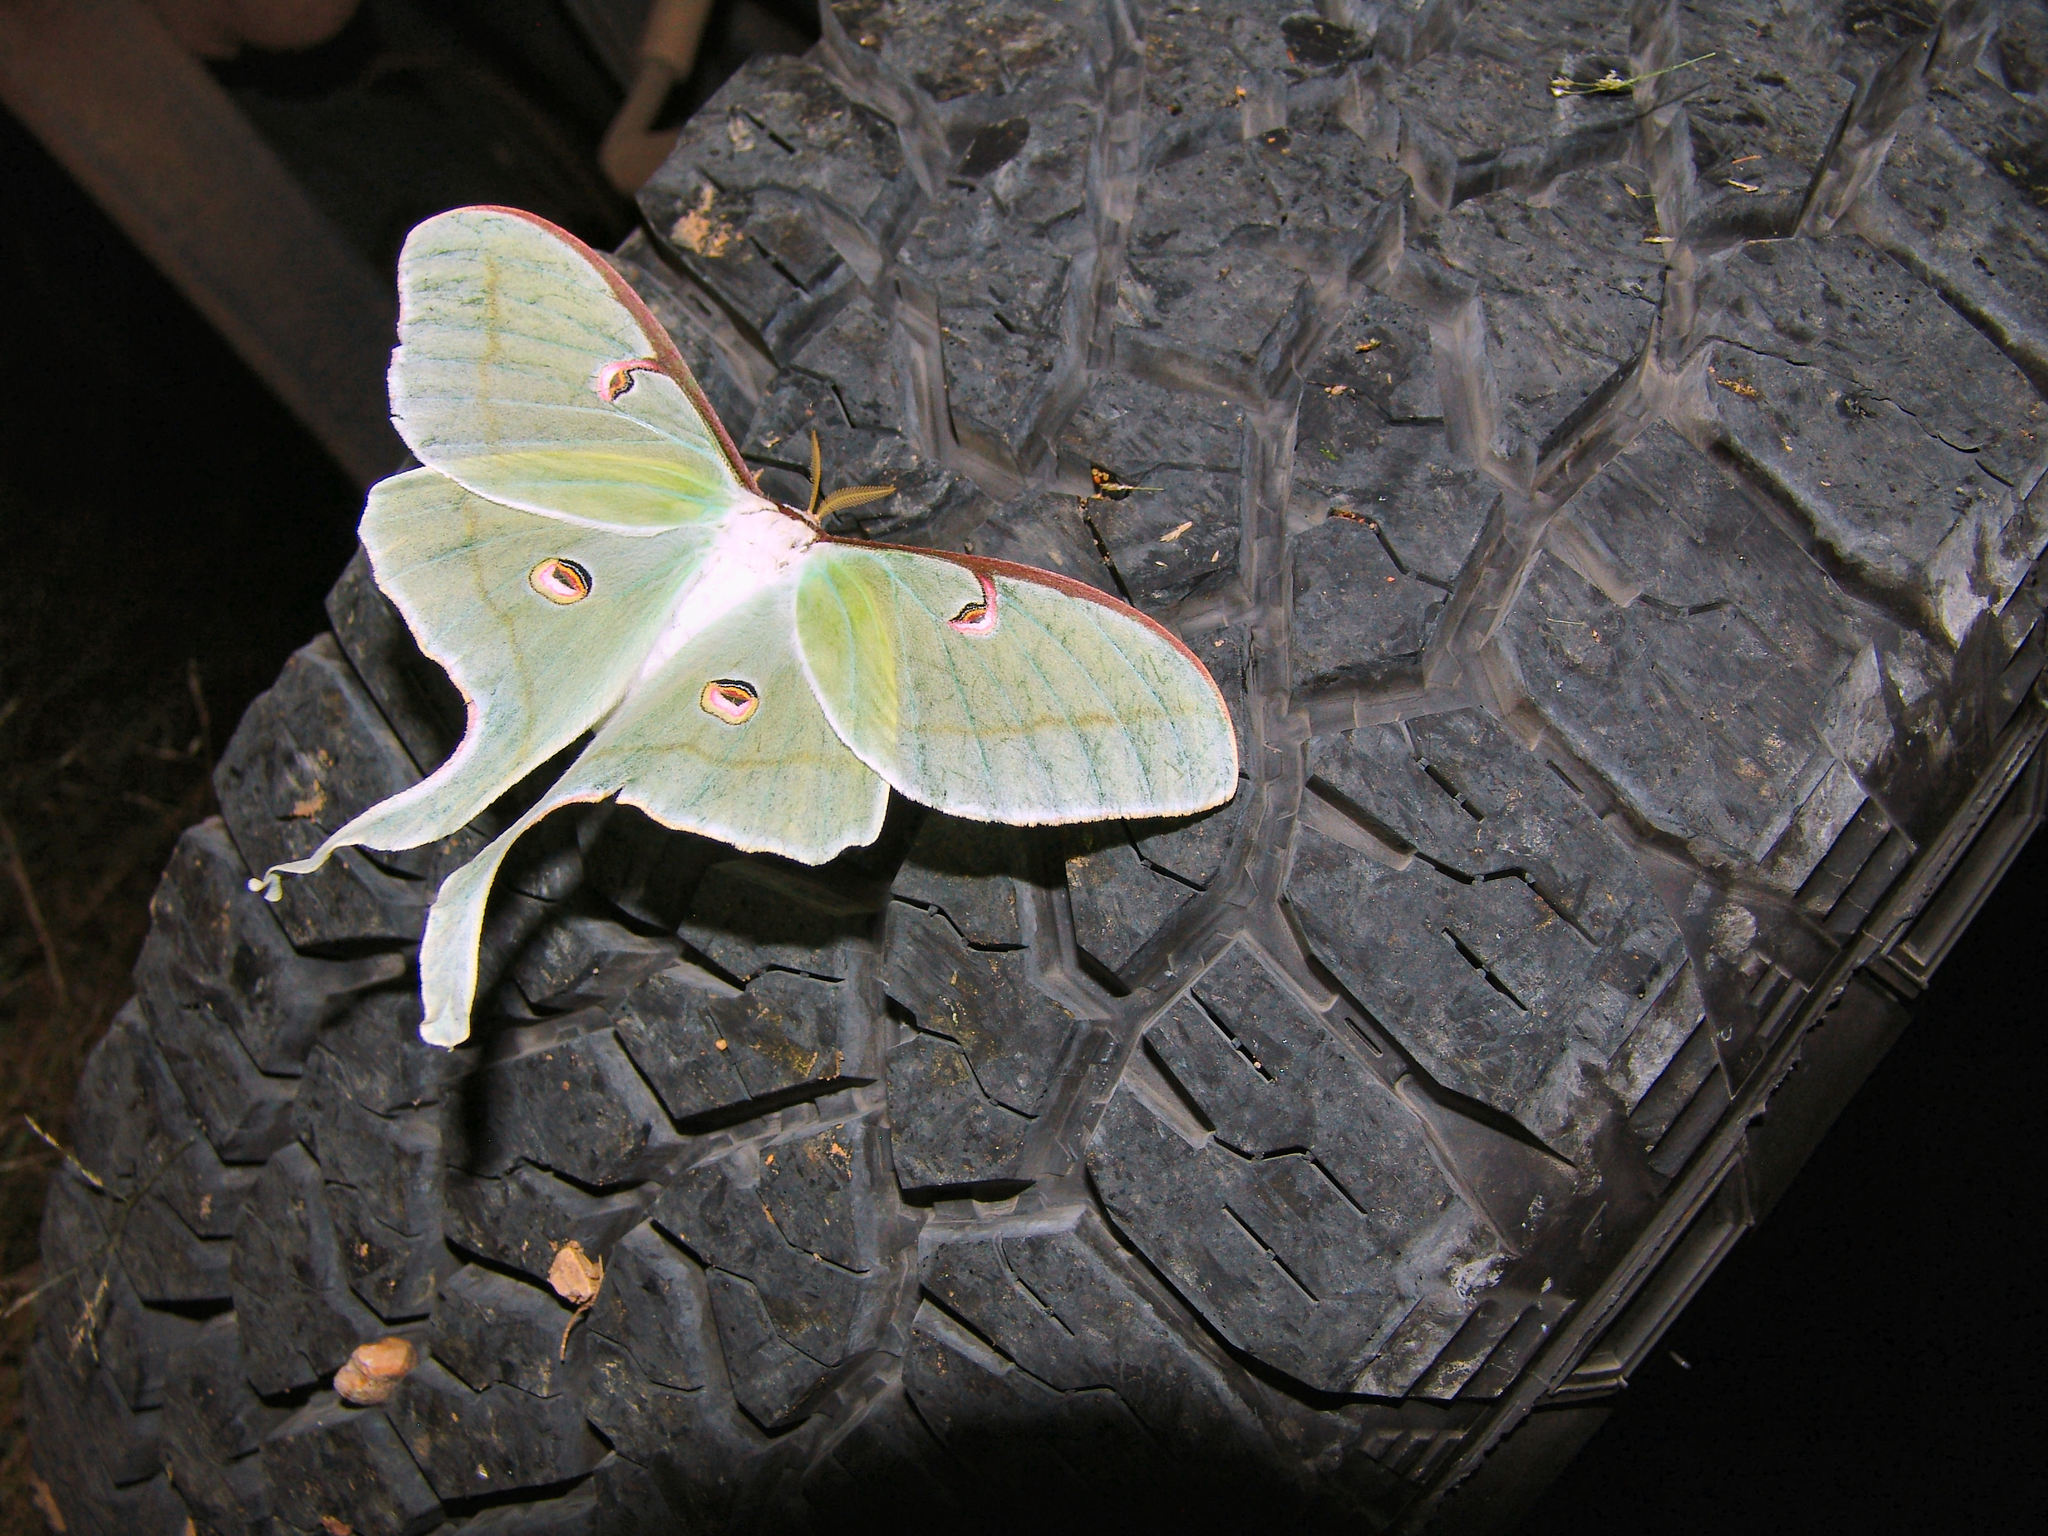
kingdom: Animalia
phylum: Arthropoda
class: Insecta
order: Lepidoptera
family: Saturniidae
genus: Actias
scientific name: Actias luna
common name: Luna moth
